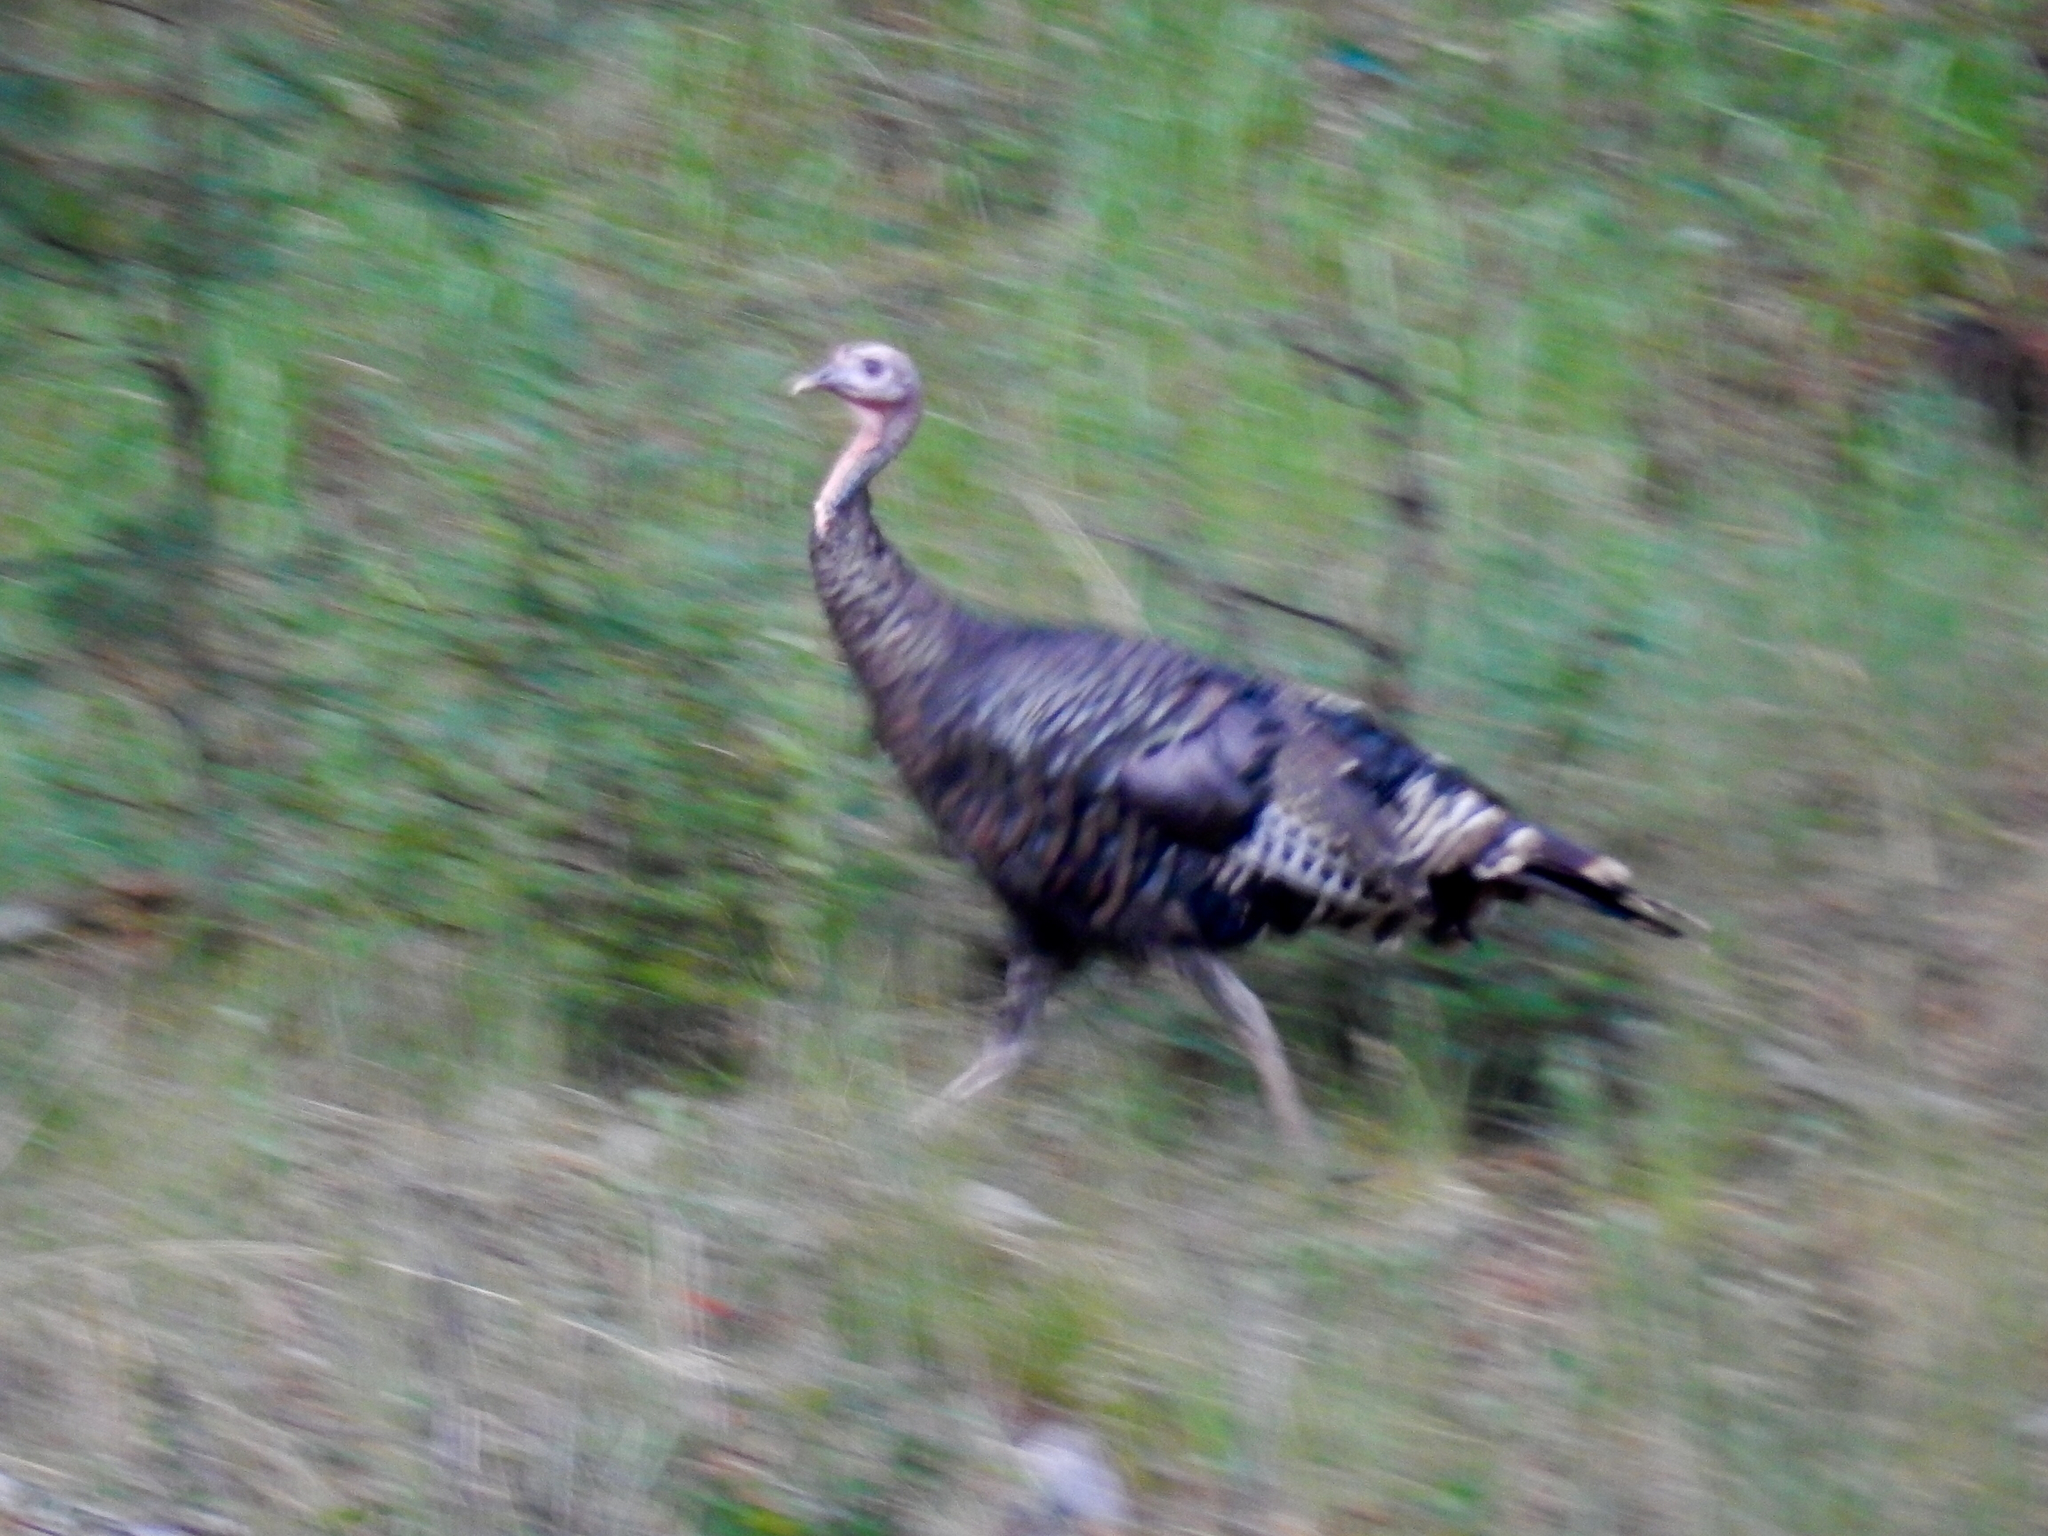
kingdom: Animalia
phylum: Chordata
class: Aves
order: Galliformes
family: Phasianidae
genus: Meleagris
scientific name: Meleagris gallopavo
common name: Wild turkey
